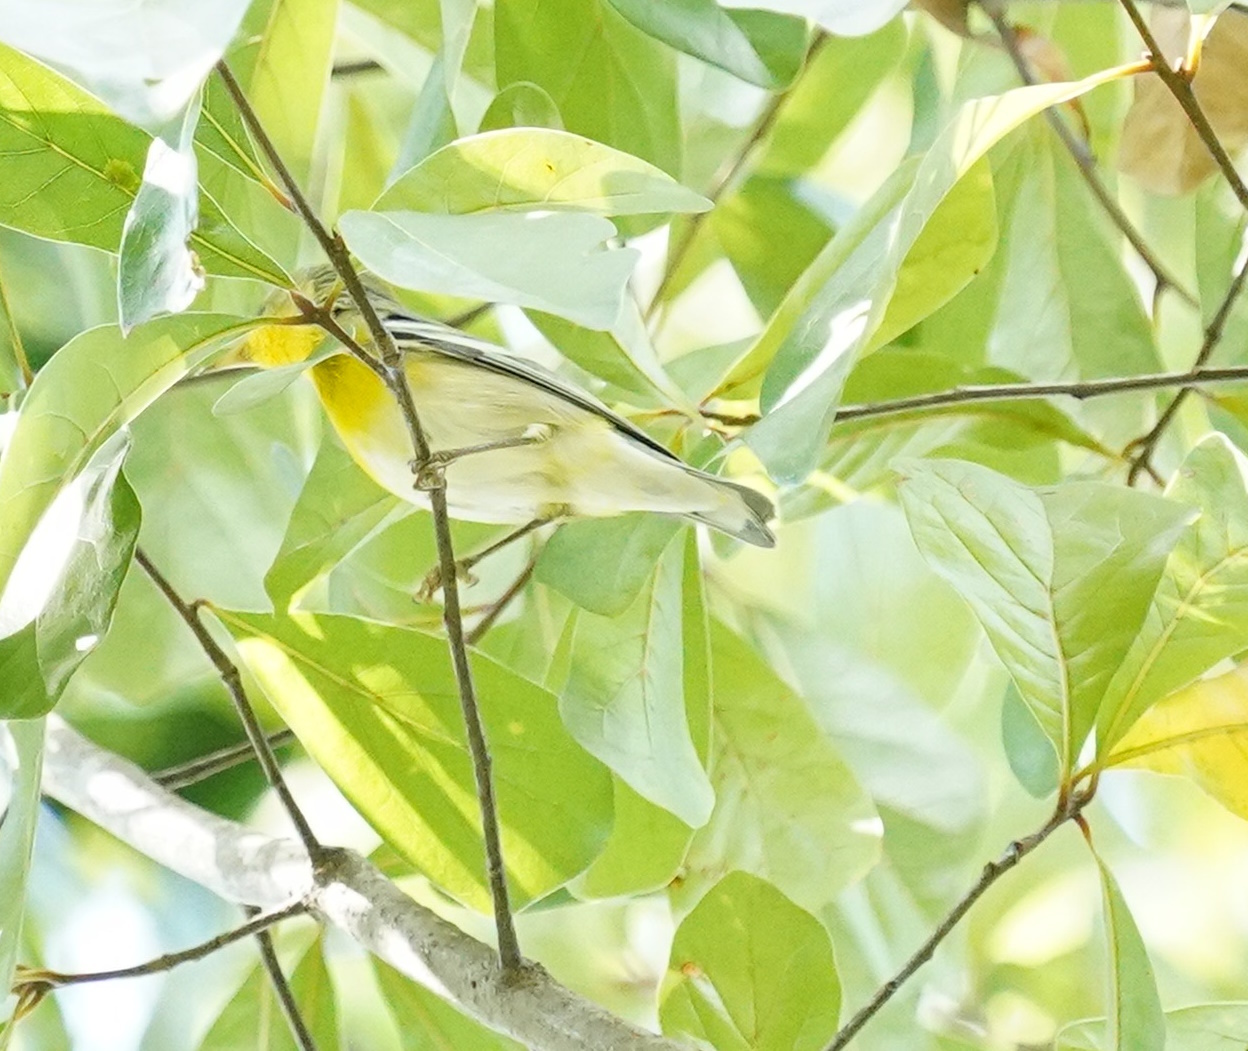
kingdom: Animalia
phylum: Chordata
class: Aves
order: Passeriformes
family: Parulidae
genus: Setophaga
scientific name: Setophaga americana
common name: Northern parula
